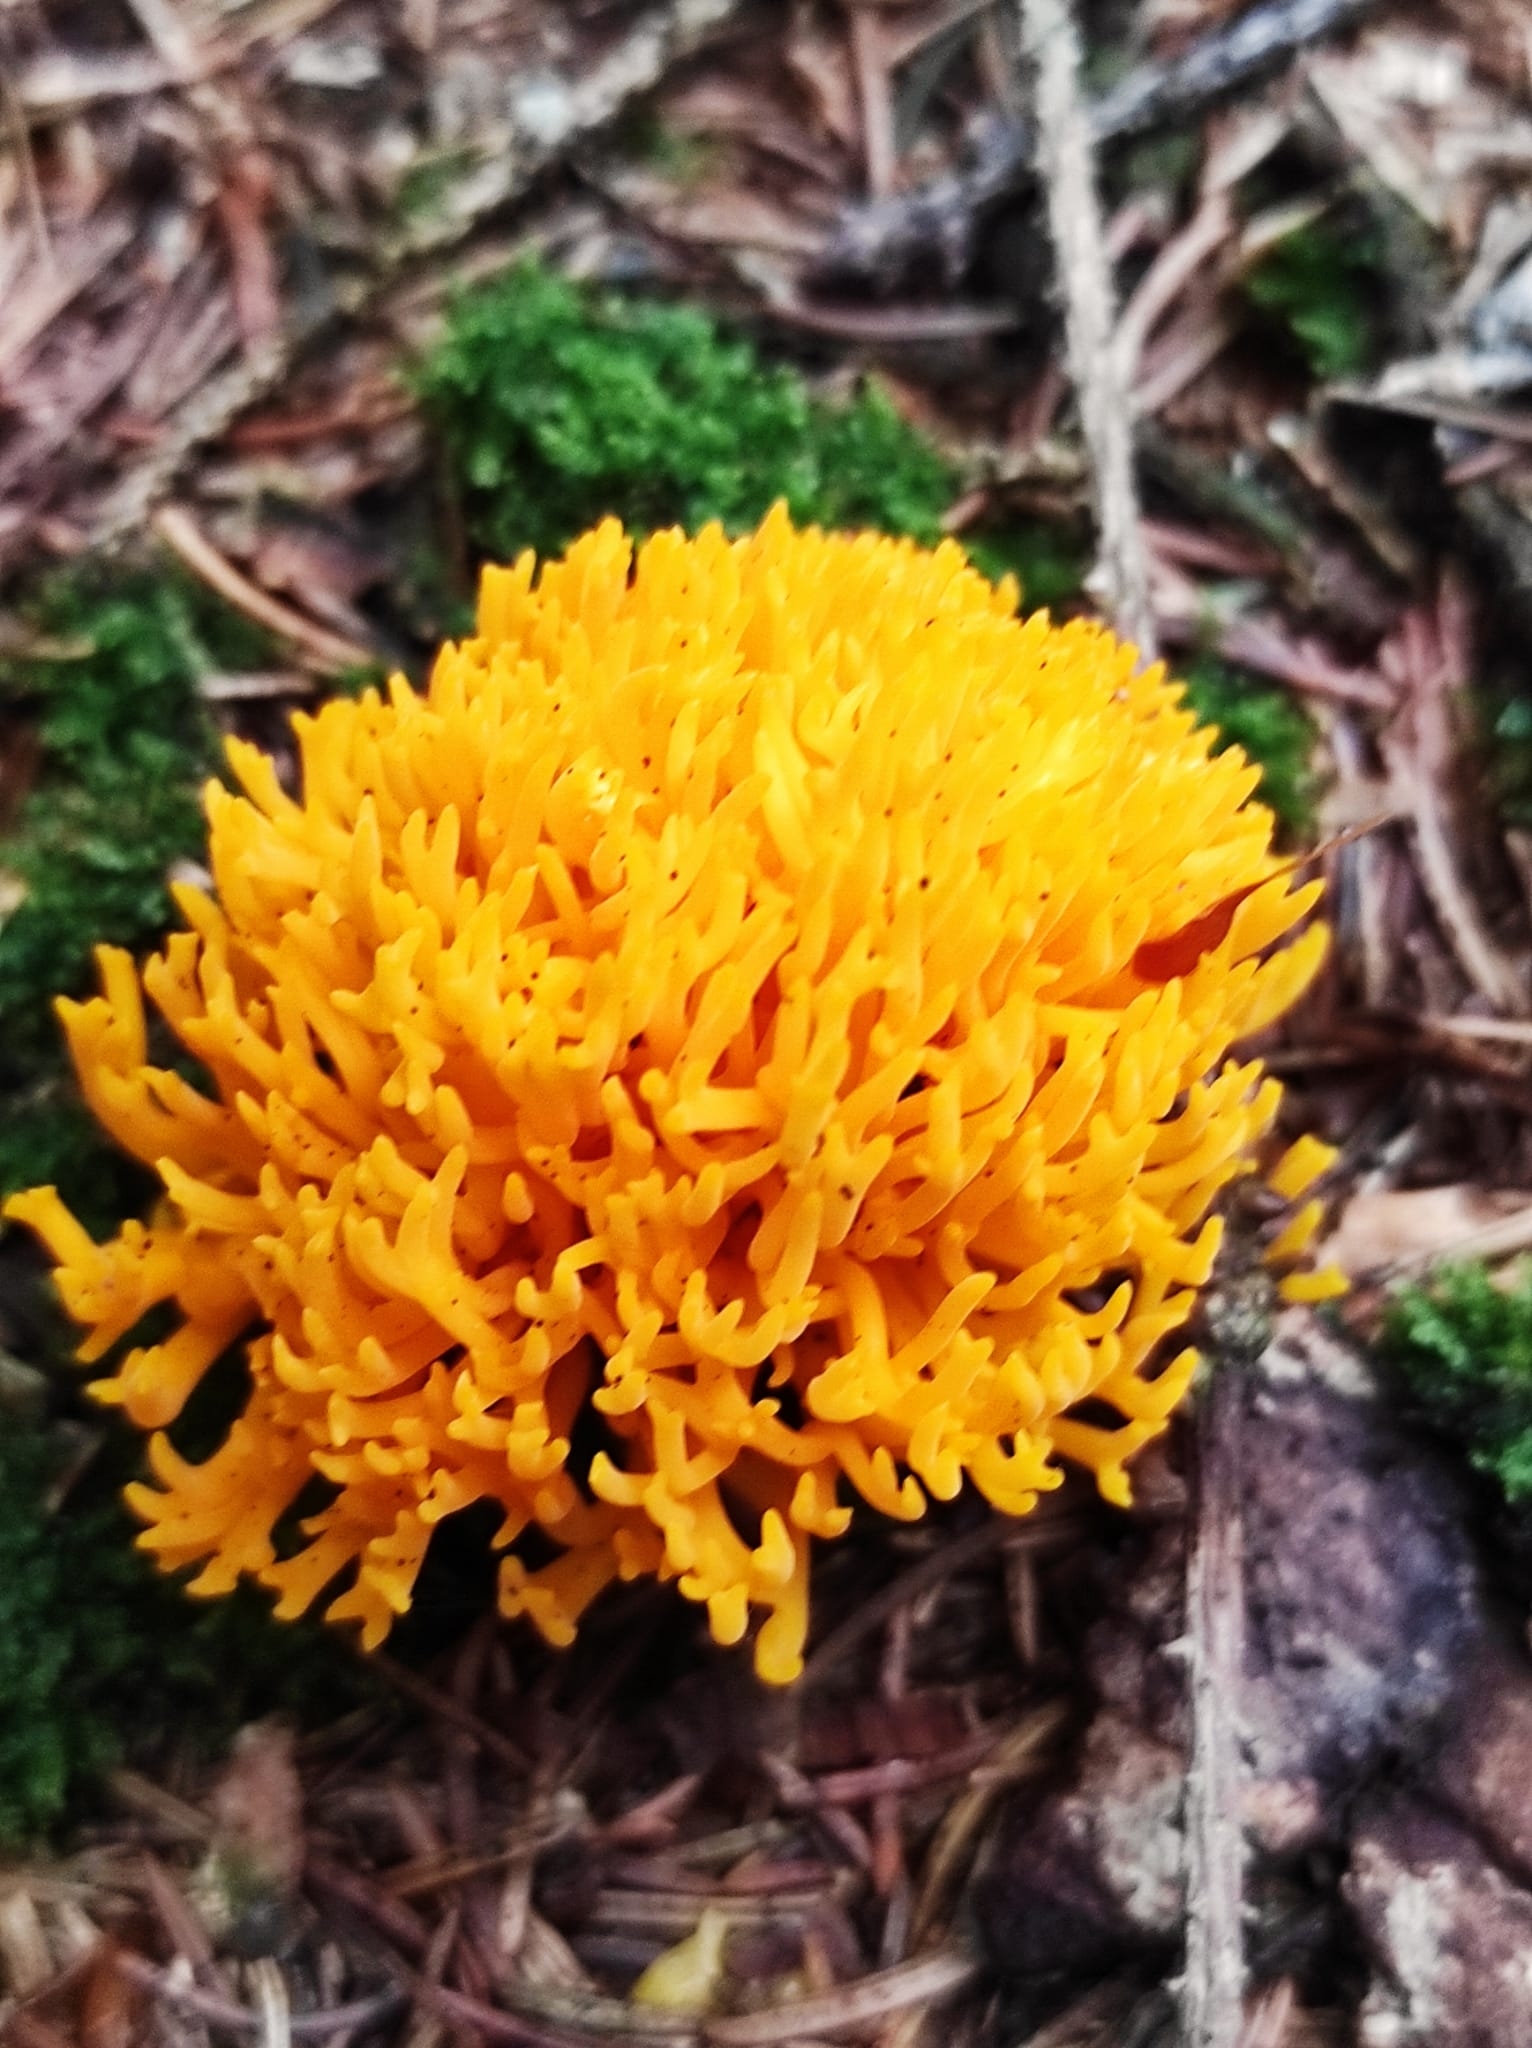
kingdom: Fungi
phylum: Basidiomycota
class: Dacrymycetes
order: Dacrymycetales
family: Dacrymycetaceae
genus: Calocera
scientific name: Calocera viscosa
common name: Yellow stagshorn
